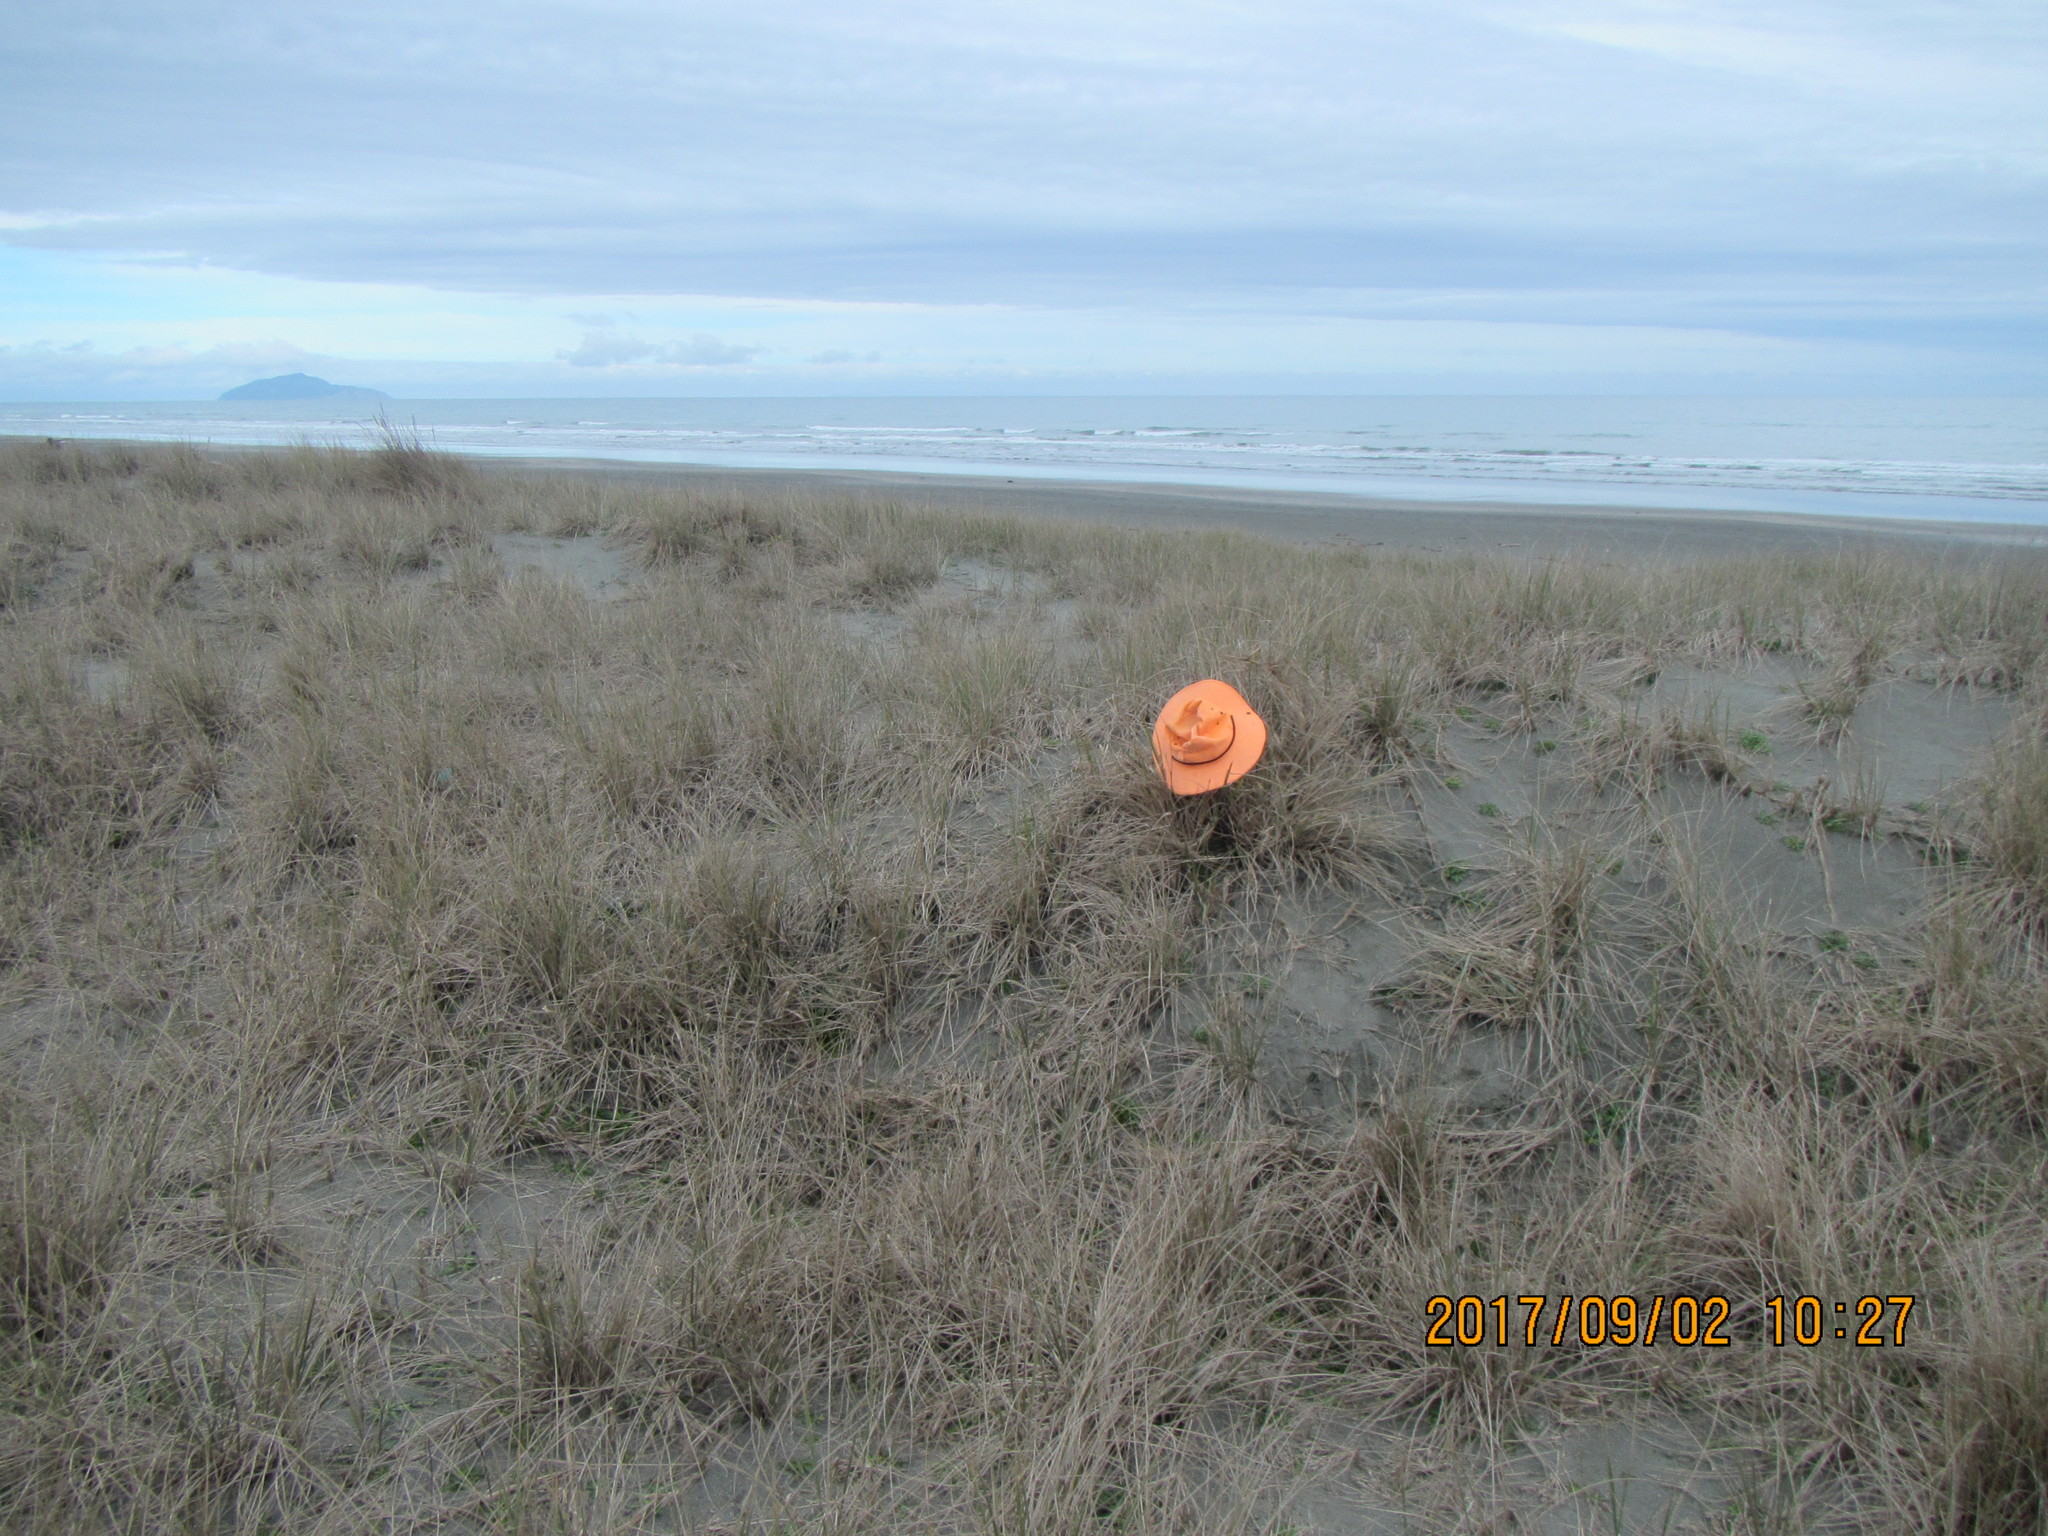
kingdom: Animalia
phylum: Mollusca
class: Gastropoda
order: Stylommatophora
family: Helicidae
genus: Cornu
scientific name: Cornu aspersum
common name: Brown garden snail
